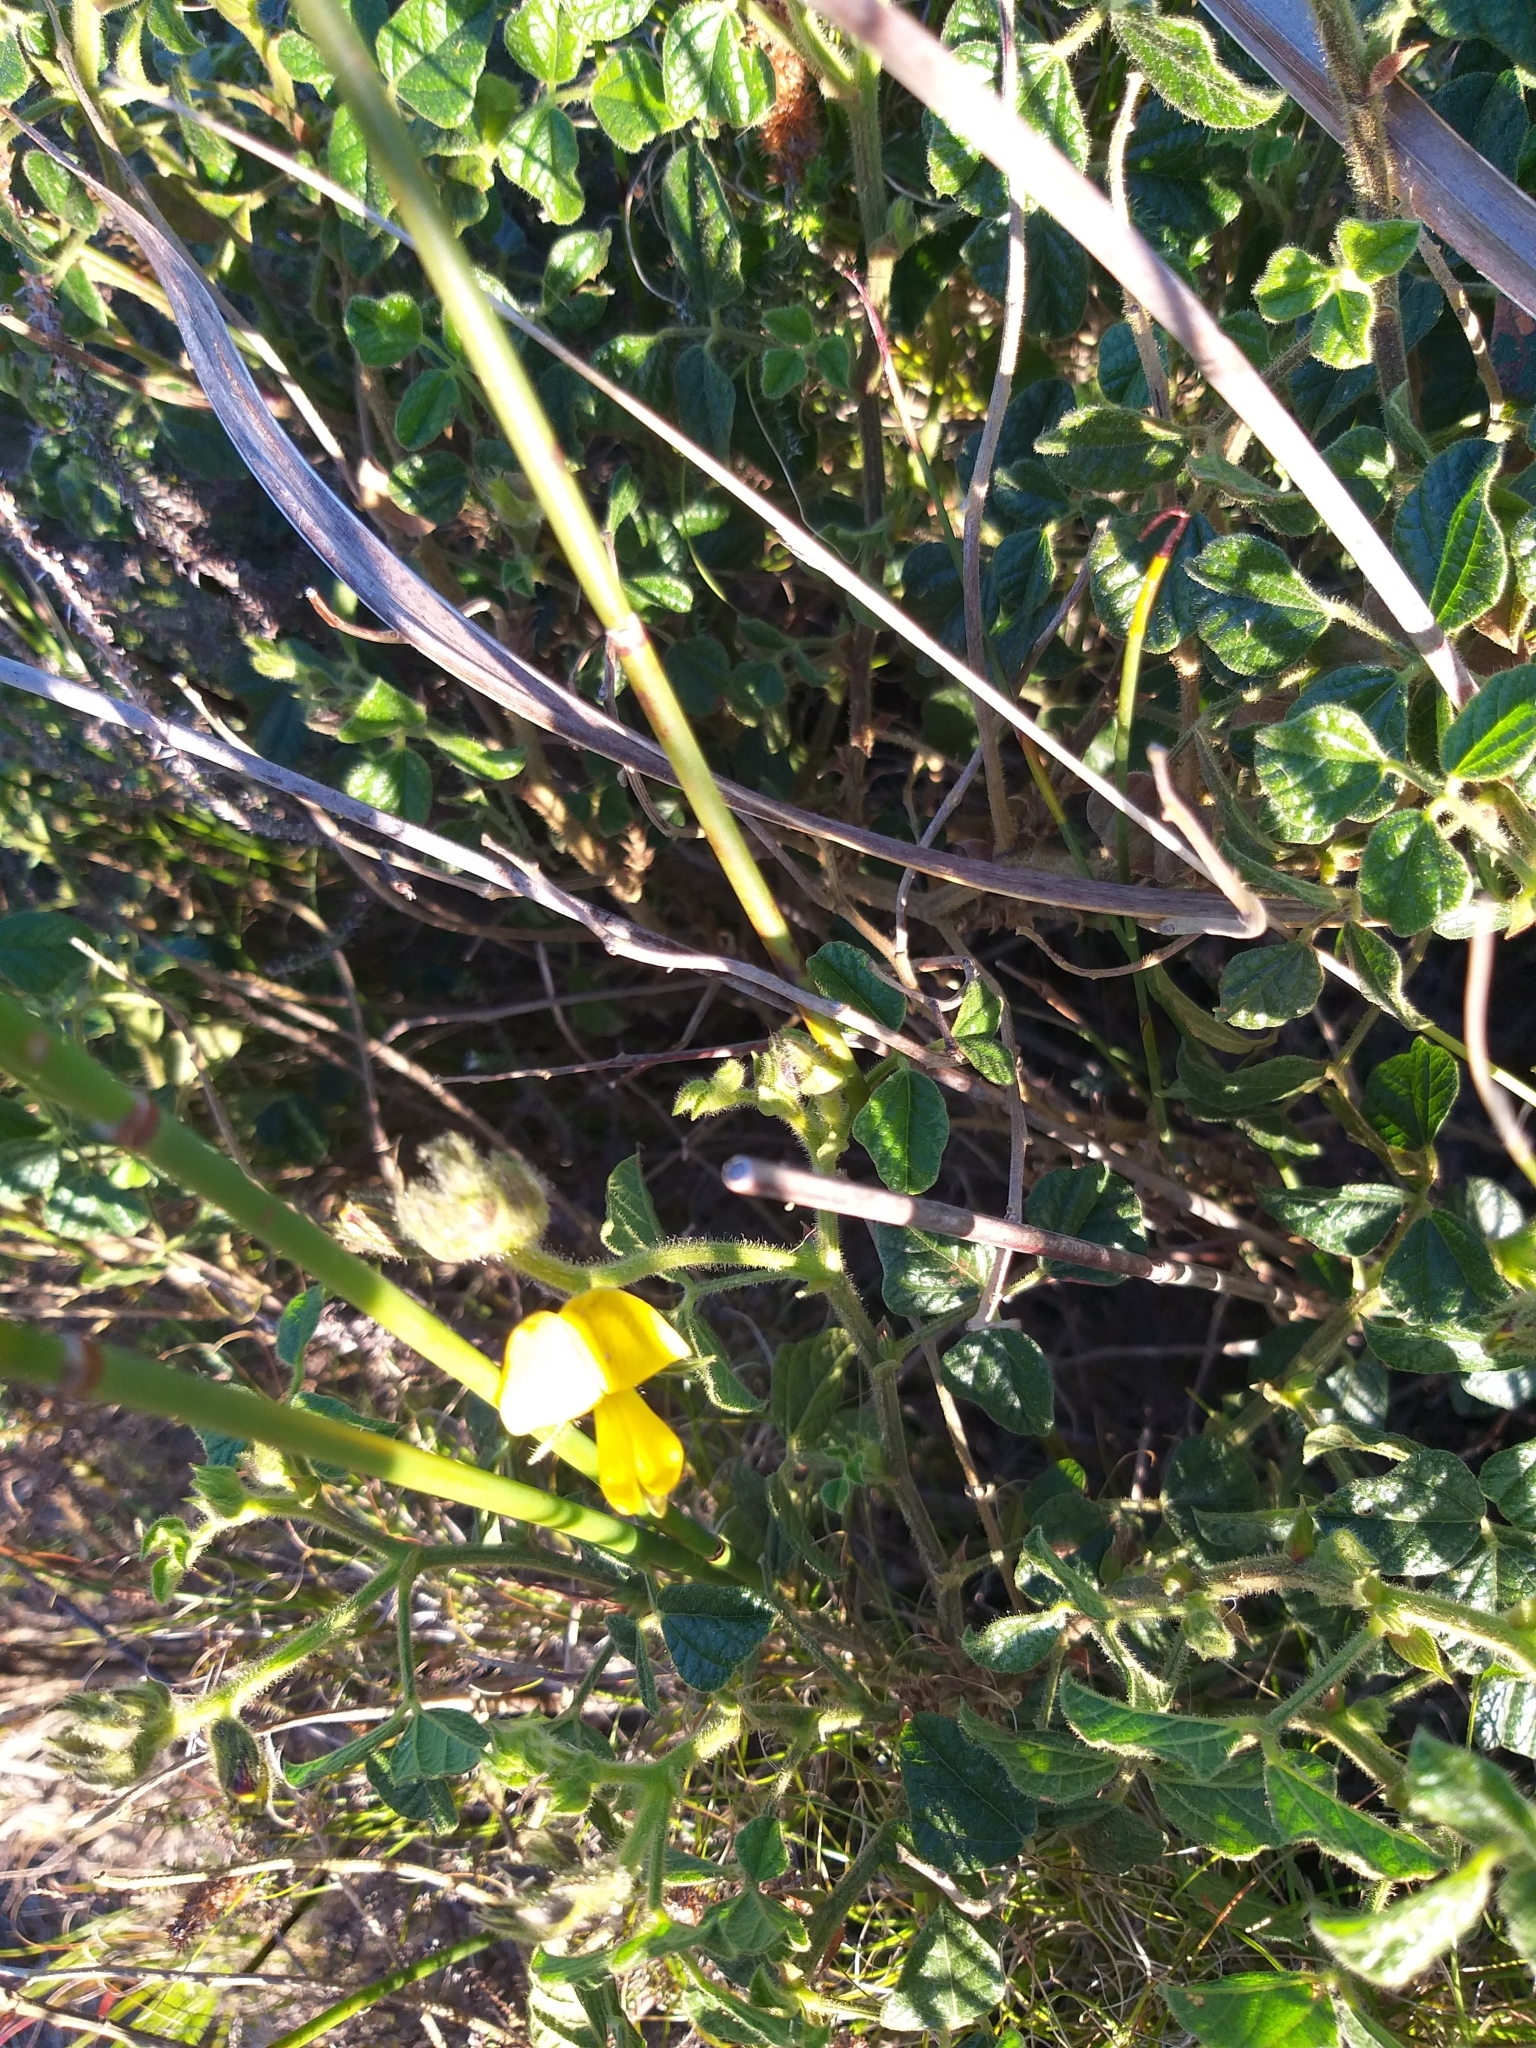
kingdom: Plantae
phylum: Tracheophyta
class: Magnoliopsida
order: Fabales
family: Fabaceae
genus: Bolusafra
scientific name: Bolusafra bituminosa
